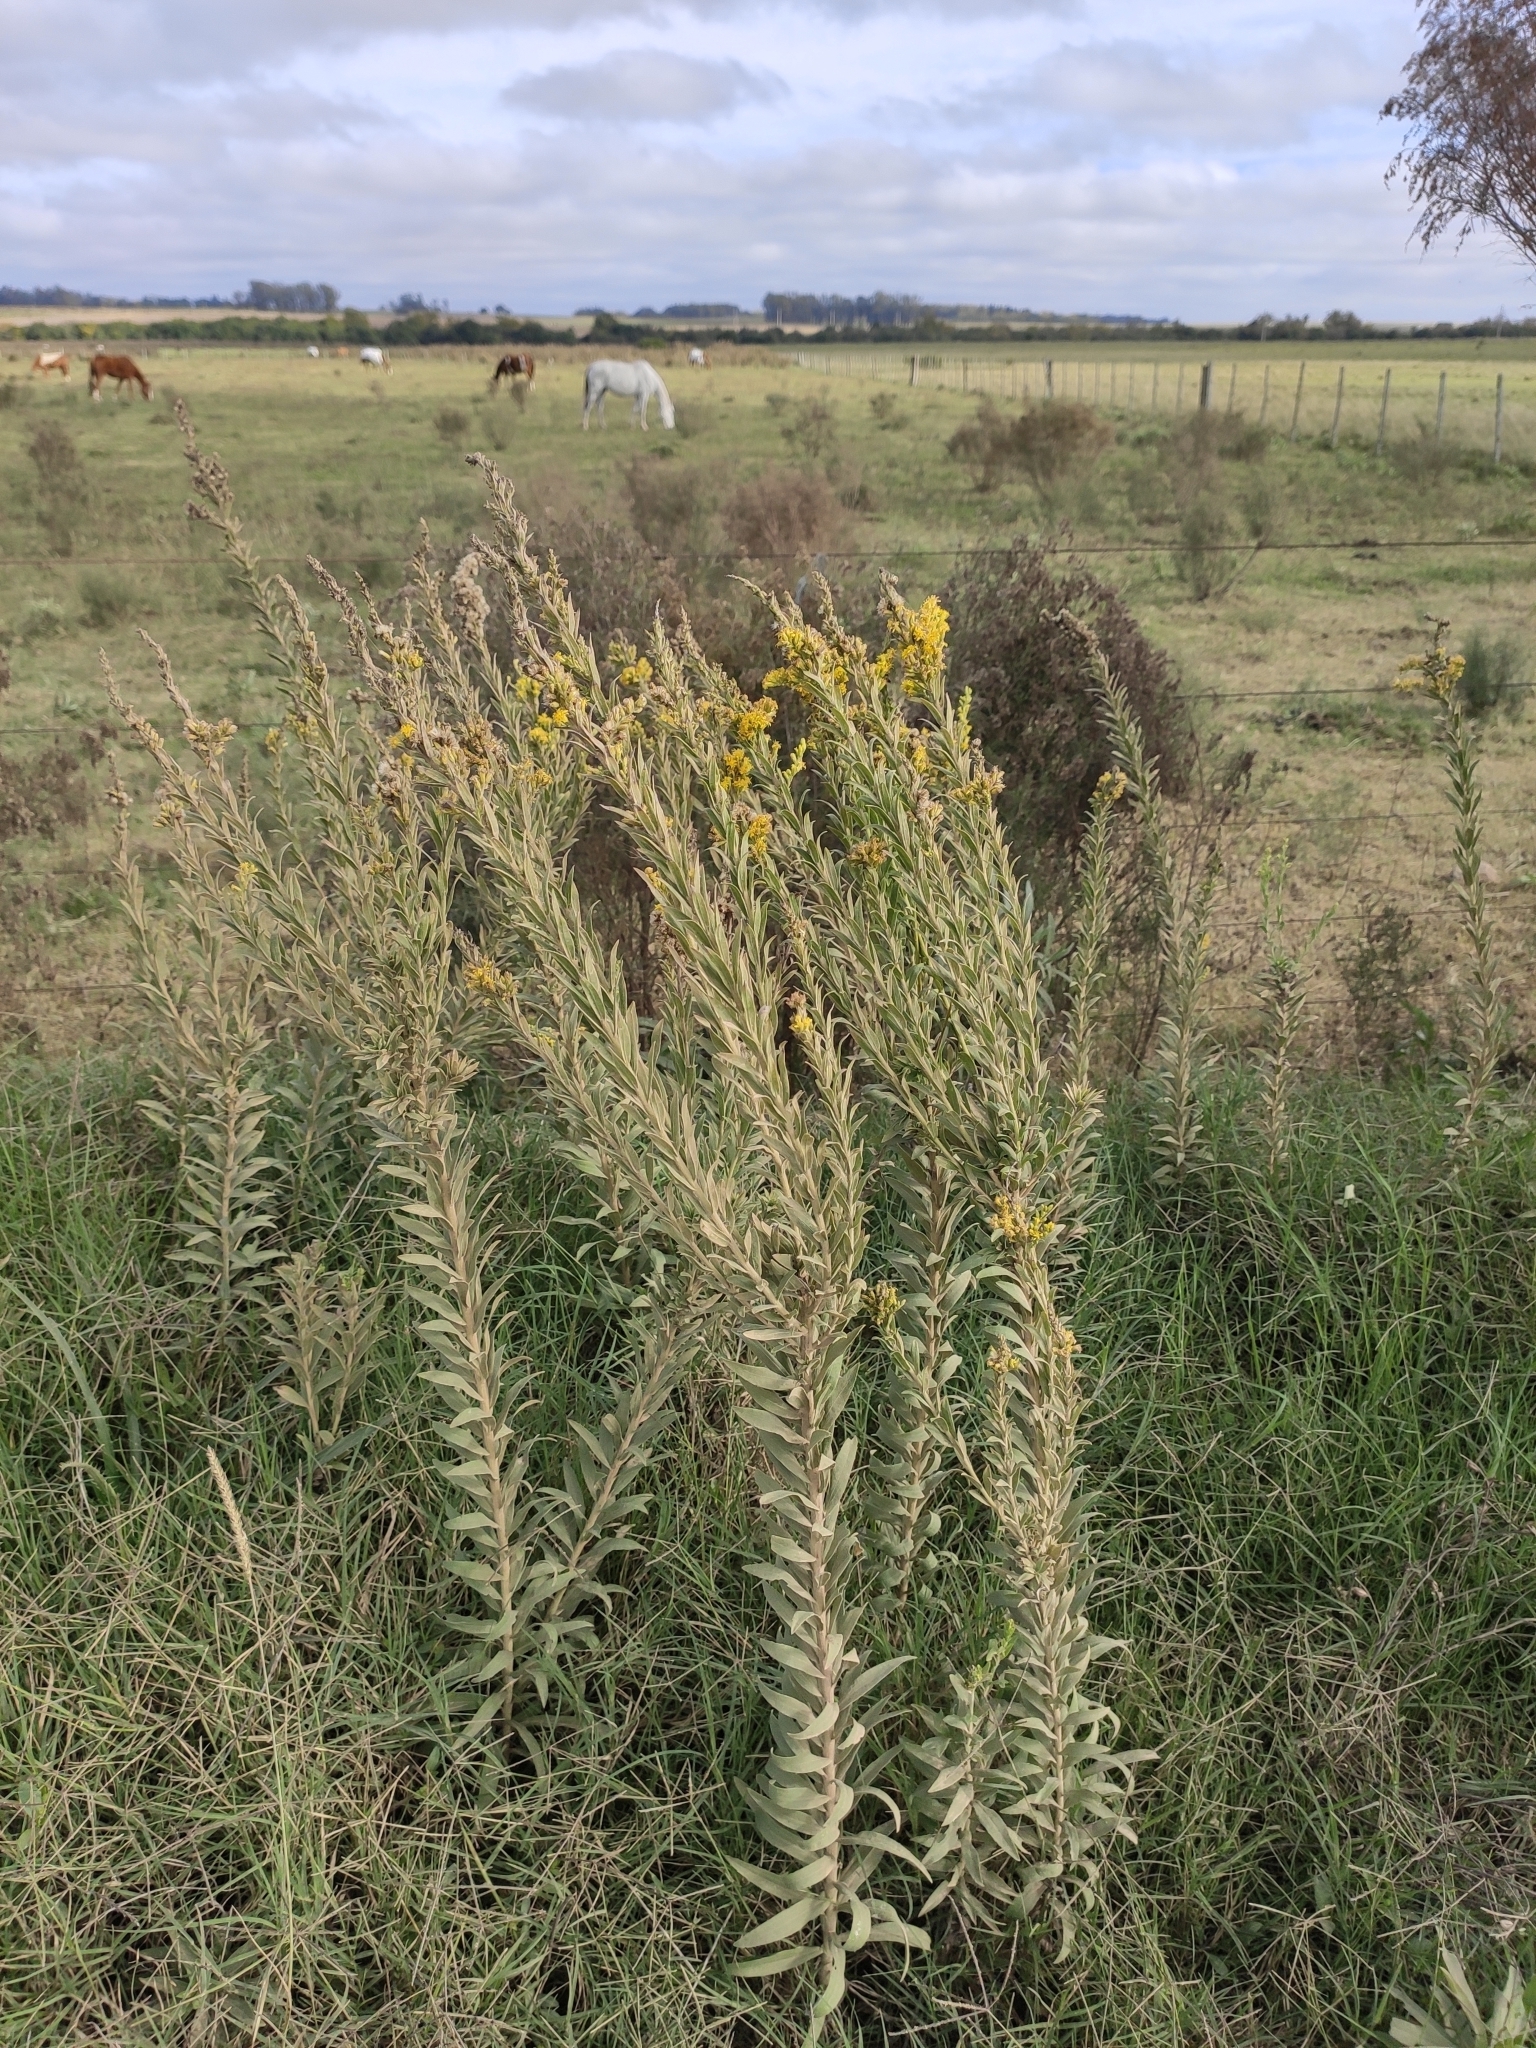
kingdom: Plantae
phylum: Tracheophyta
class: Magnoliopsida
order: Asterales
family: Asteraceae
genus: Solidago
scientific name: Solidago chilensis
